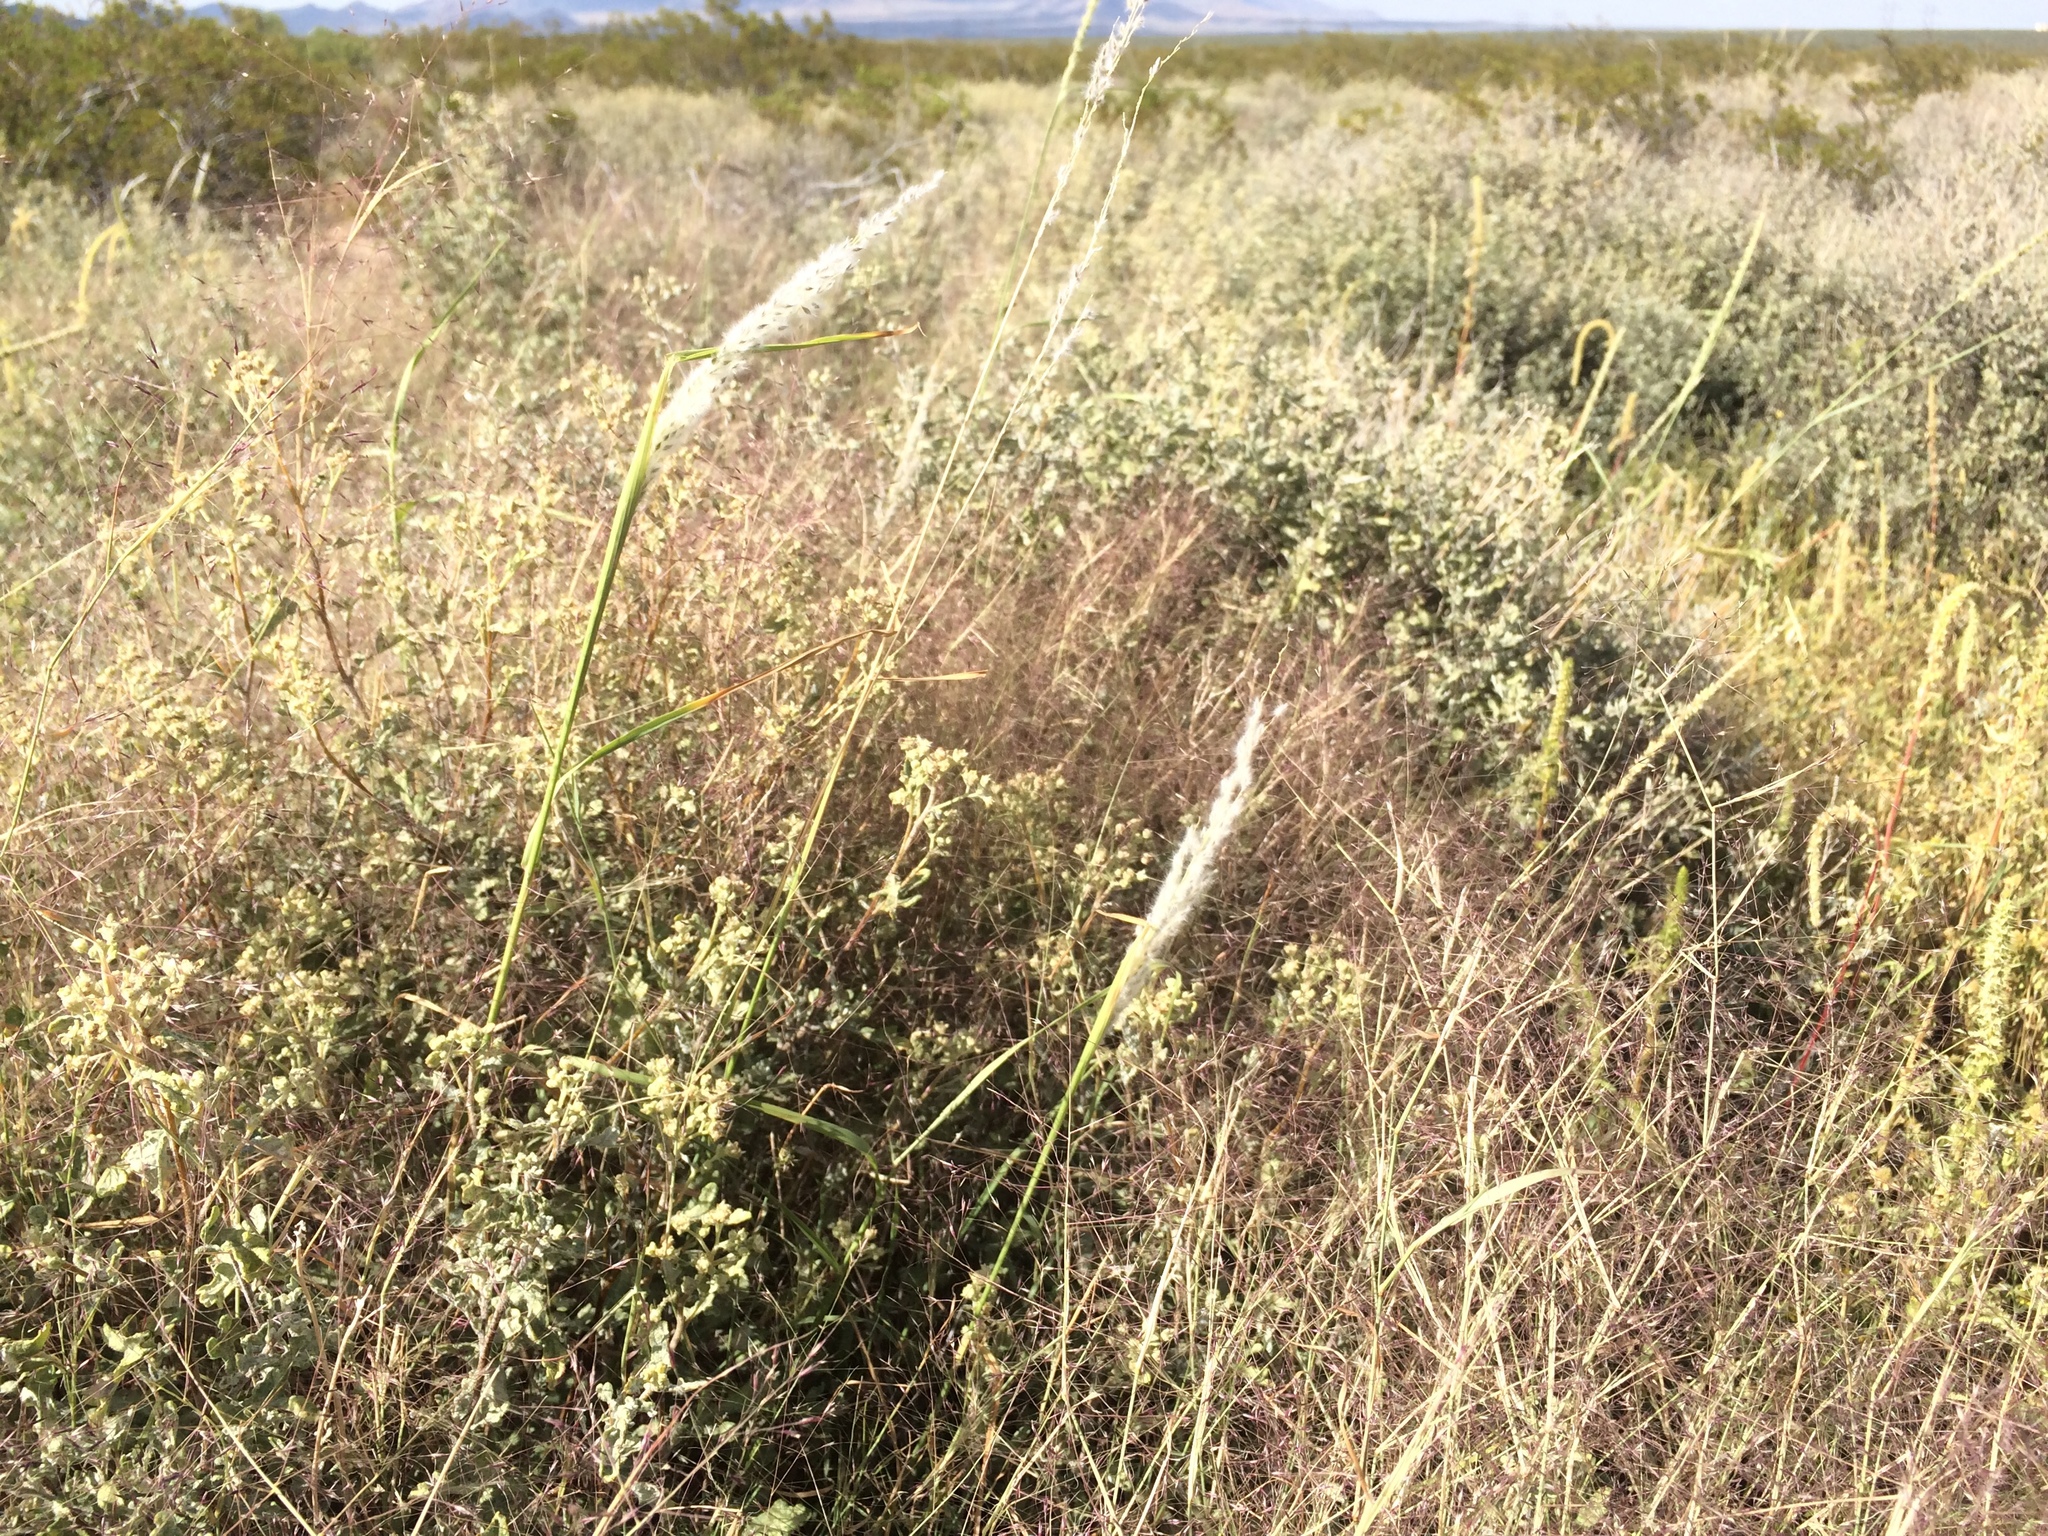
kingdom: Plantae
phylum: Tracheophyta
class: Liliopsida
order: Poales
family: Poaceae
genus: Digitaria
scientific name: Digitaria californica
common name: Arizona cottontop
